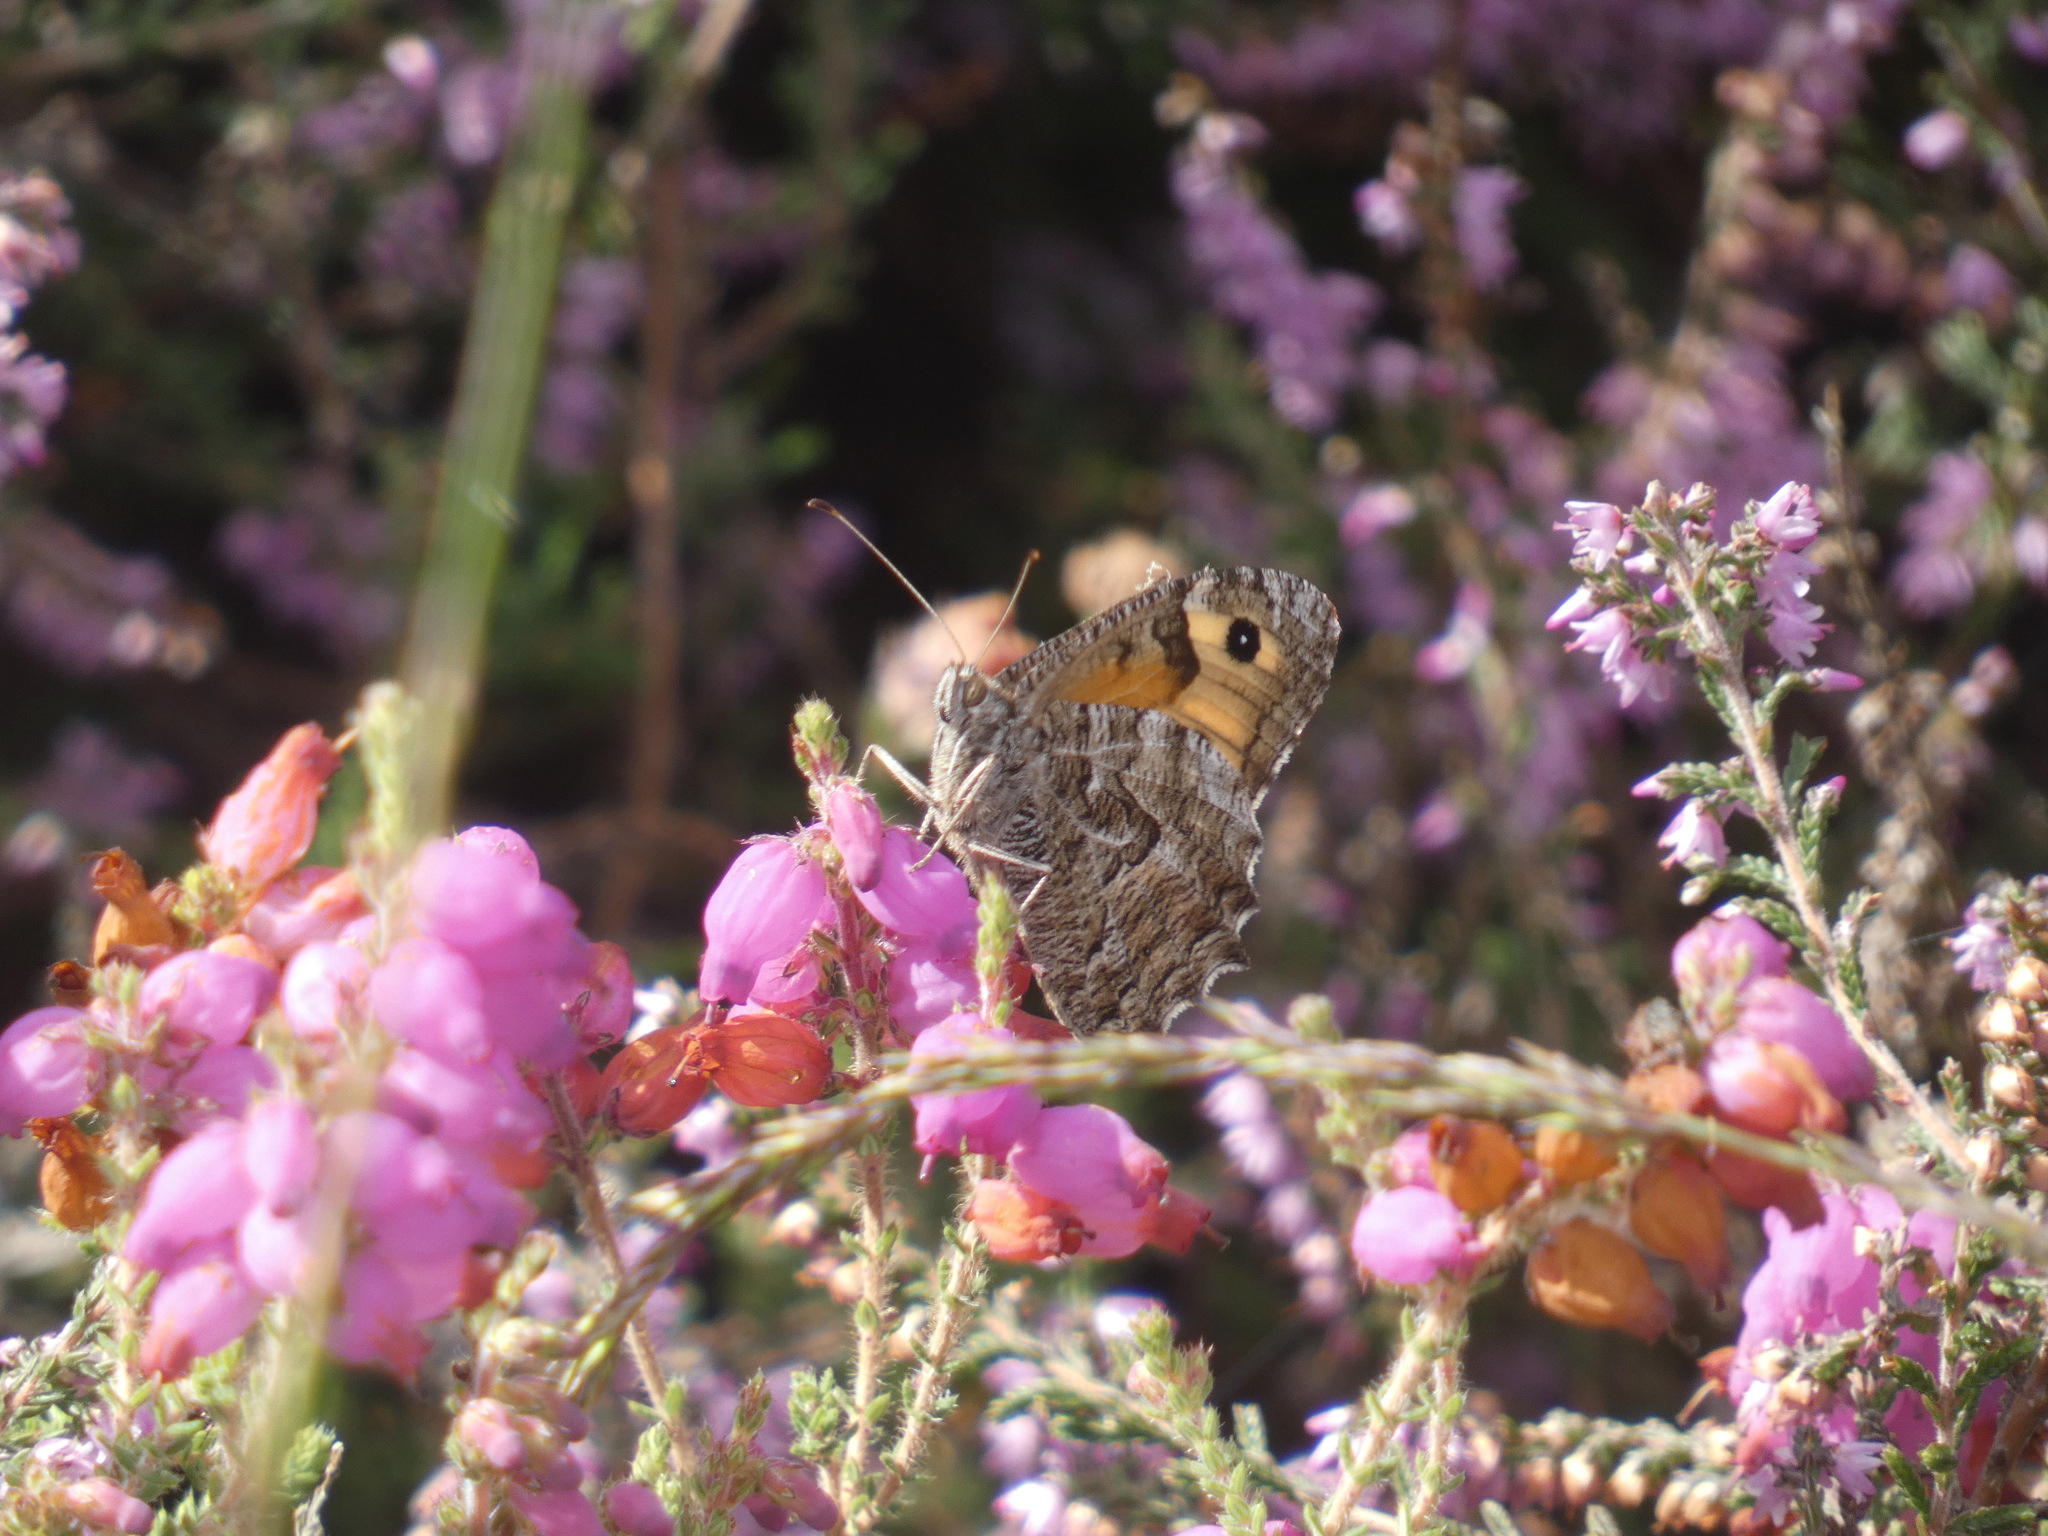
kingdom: Animalia
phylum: Arthropoda
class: Insecta
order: Lepidoptera
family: Nymphalidae
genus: Hipparchia
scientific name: Hipparchia semele
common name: Grayling
